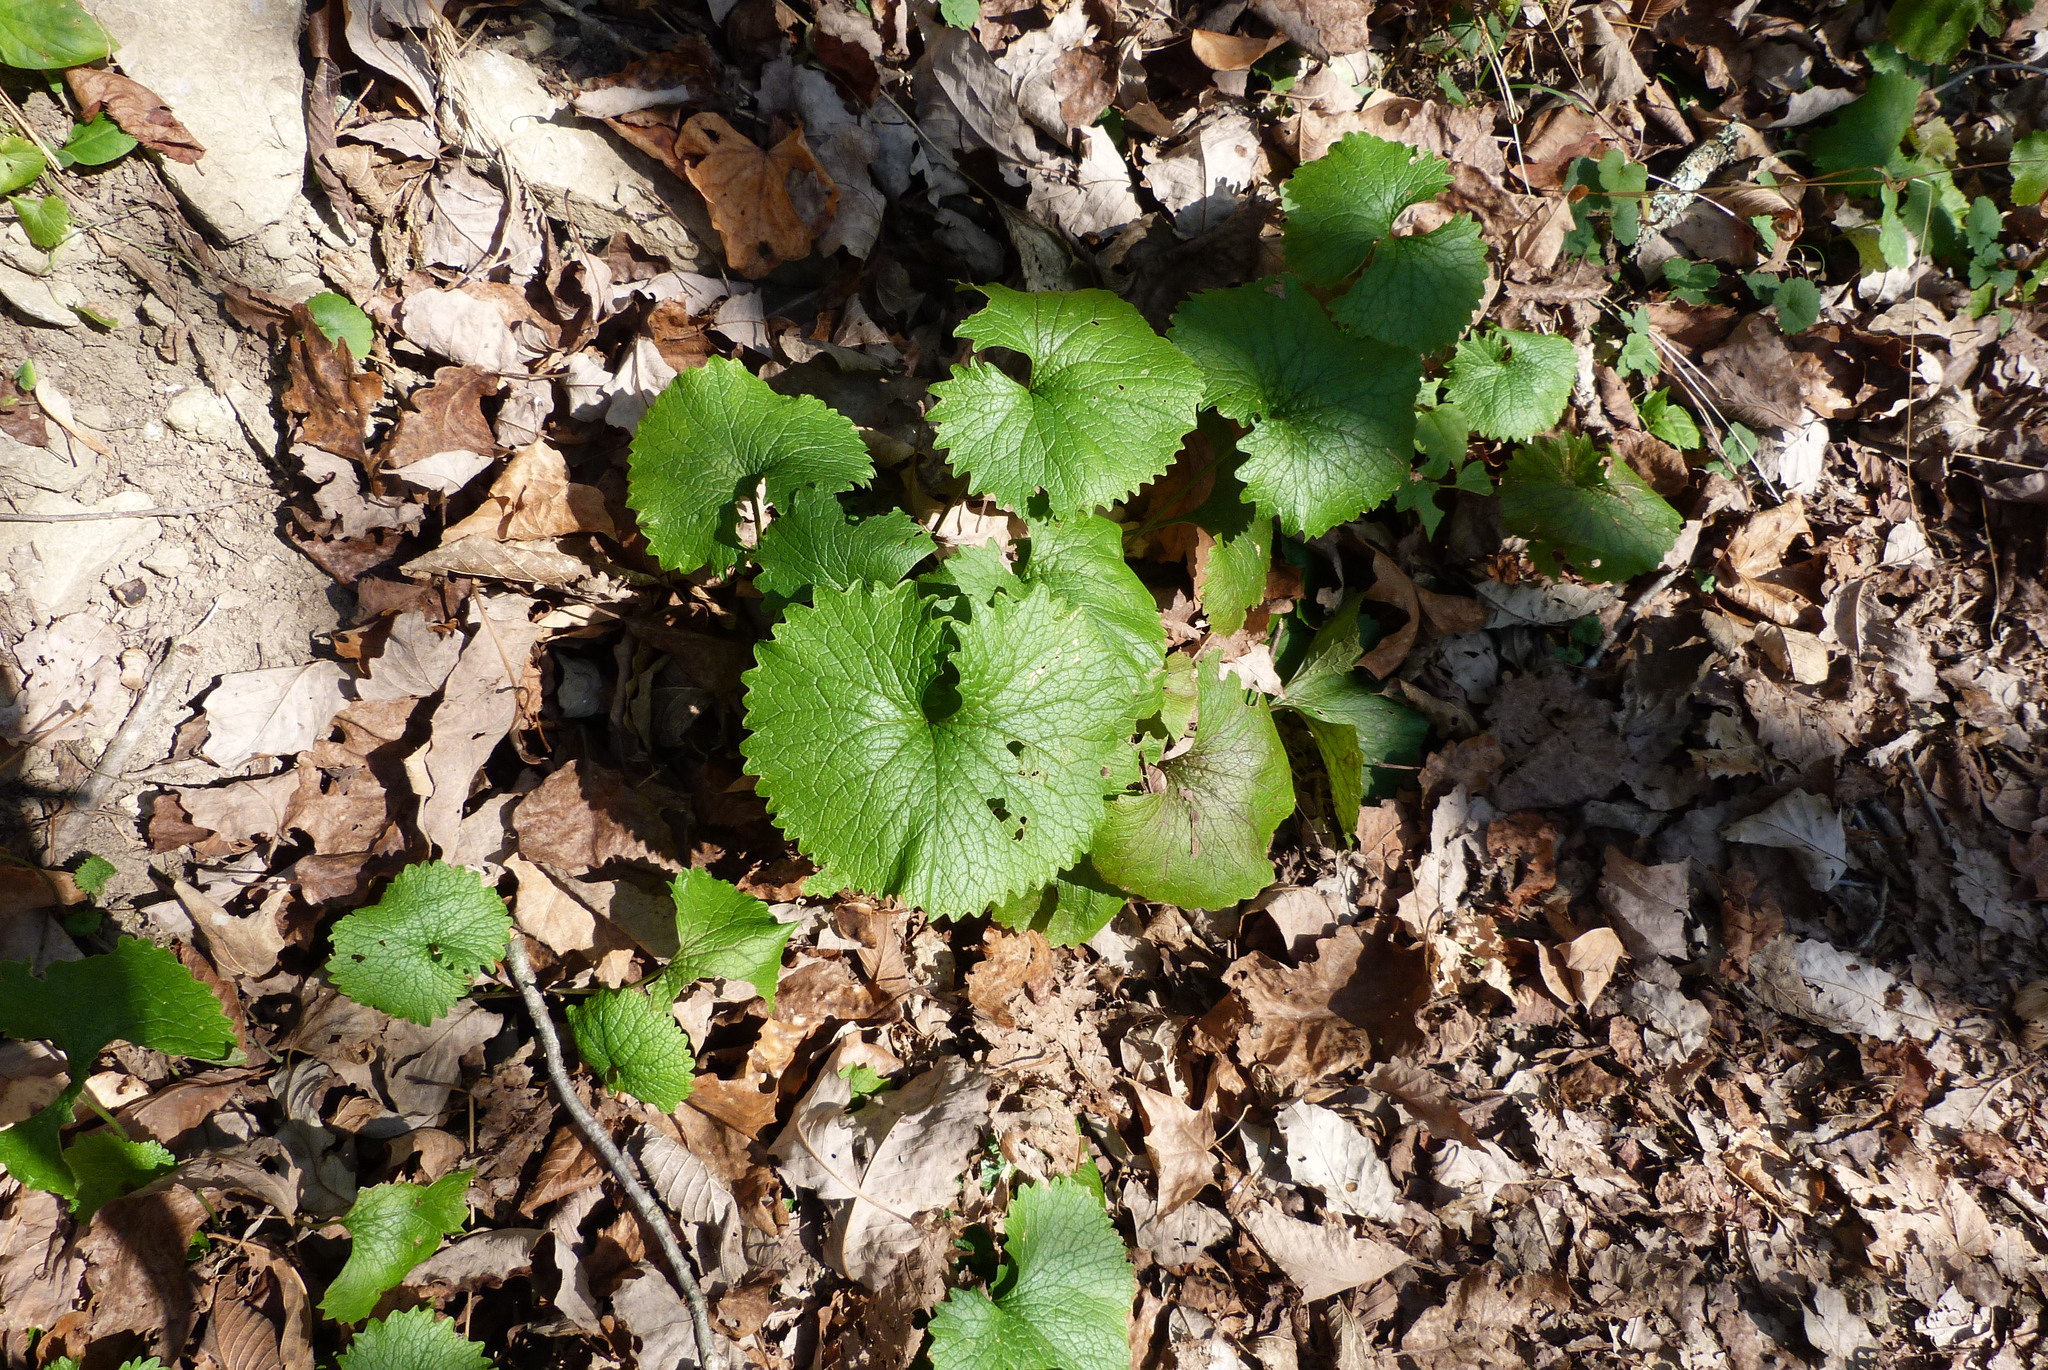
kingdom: Plantae
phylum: Tracheophyta
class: Magnoliopsida
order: Brassicales
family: Brassicaceae
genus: Alliaria
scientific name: Alliaria petiolata
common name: Garlic mustard
